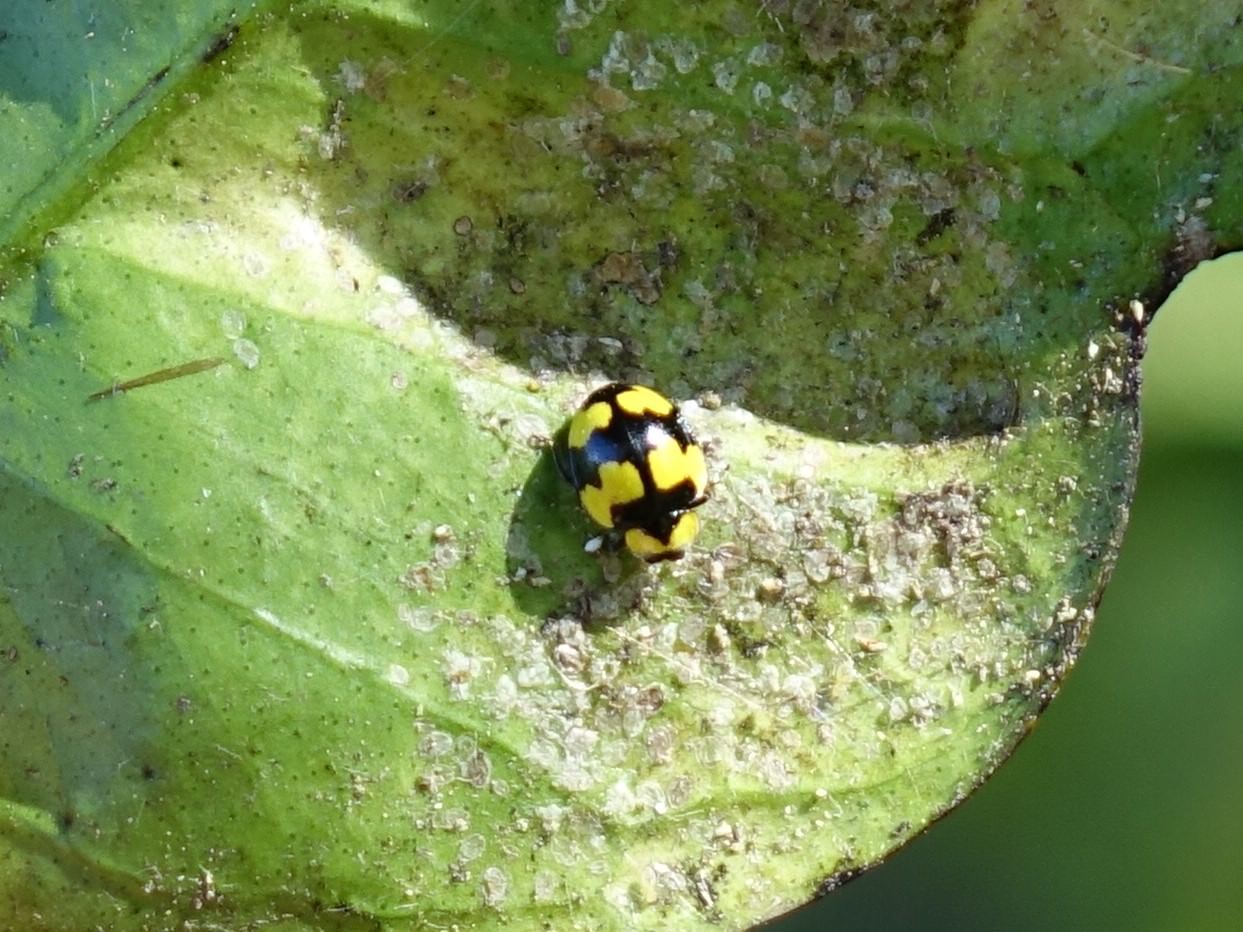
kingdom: Animalia
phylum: Arthropoda
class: Insecta
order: Coleoptera
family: Coccinellidae
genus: Illeis
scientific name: Illeis galbula
